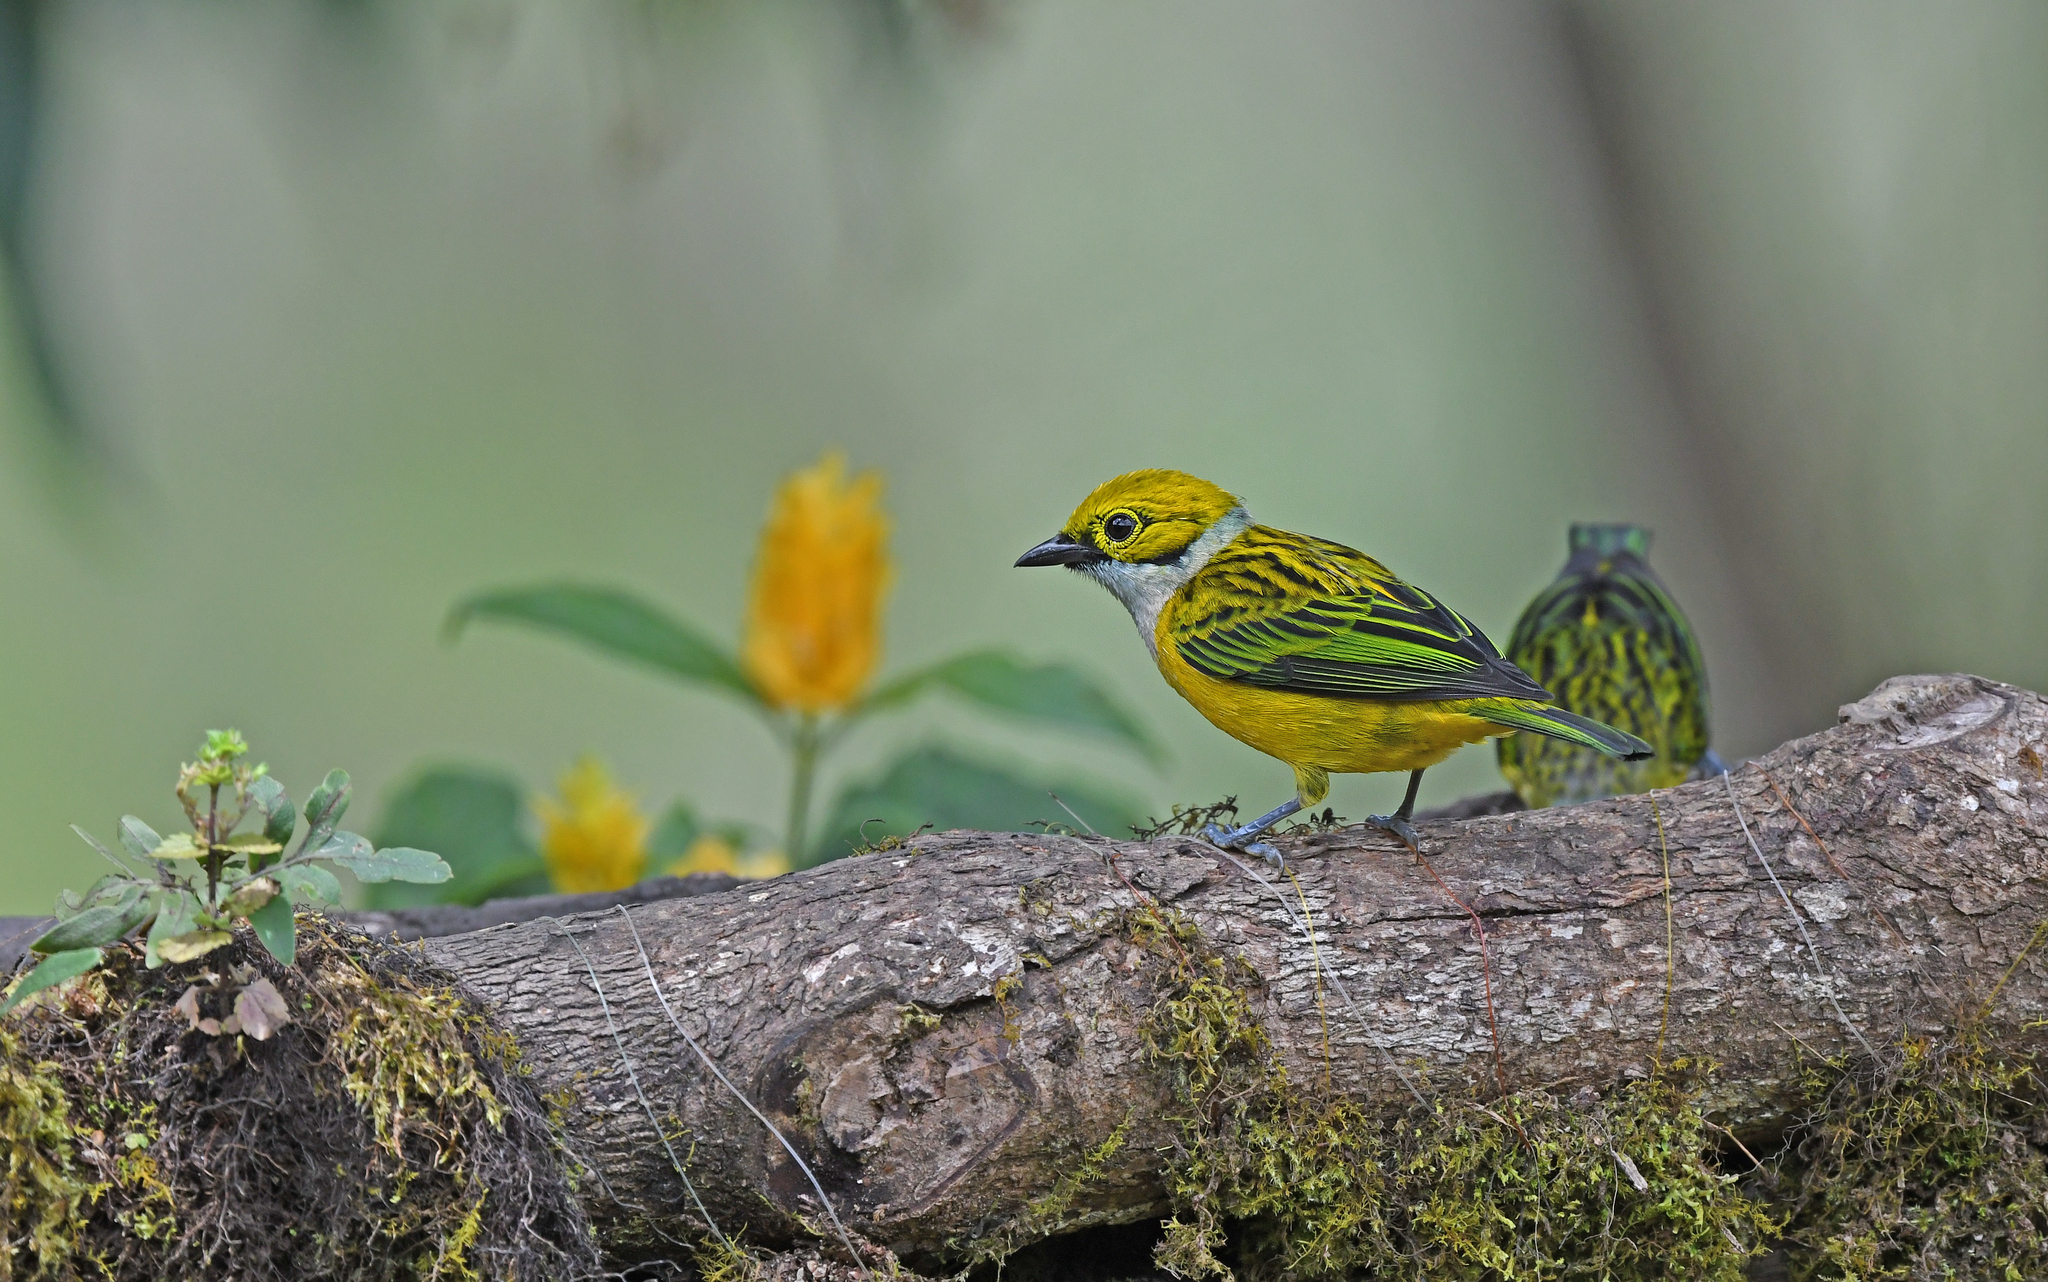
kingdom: Animalia
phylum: Chordata
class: Aves
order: Passeriformes
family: Thraupidae
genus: Tangara
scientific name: Tangara icterocephala
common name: Silver-throated tanager
